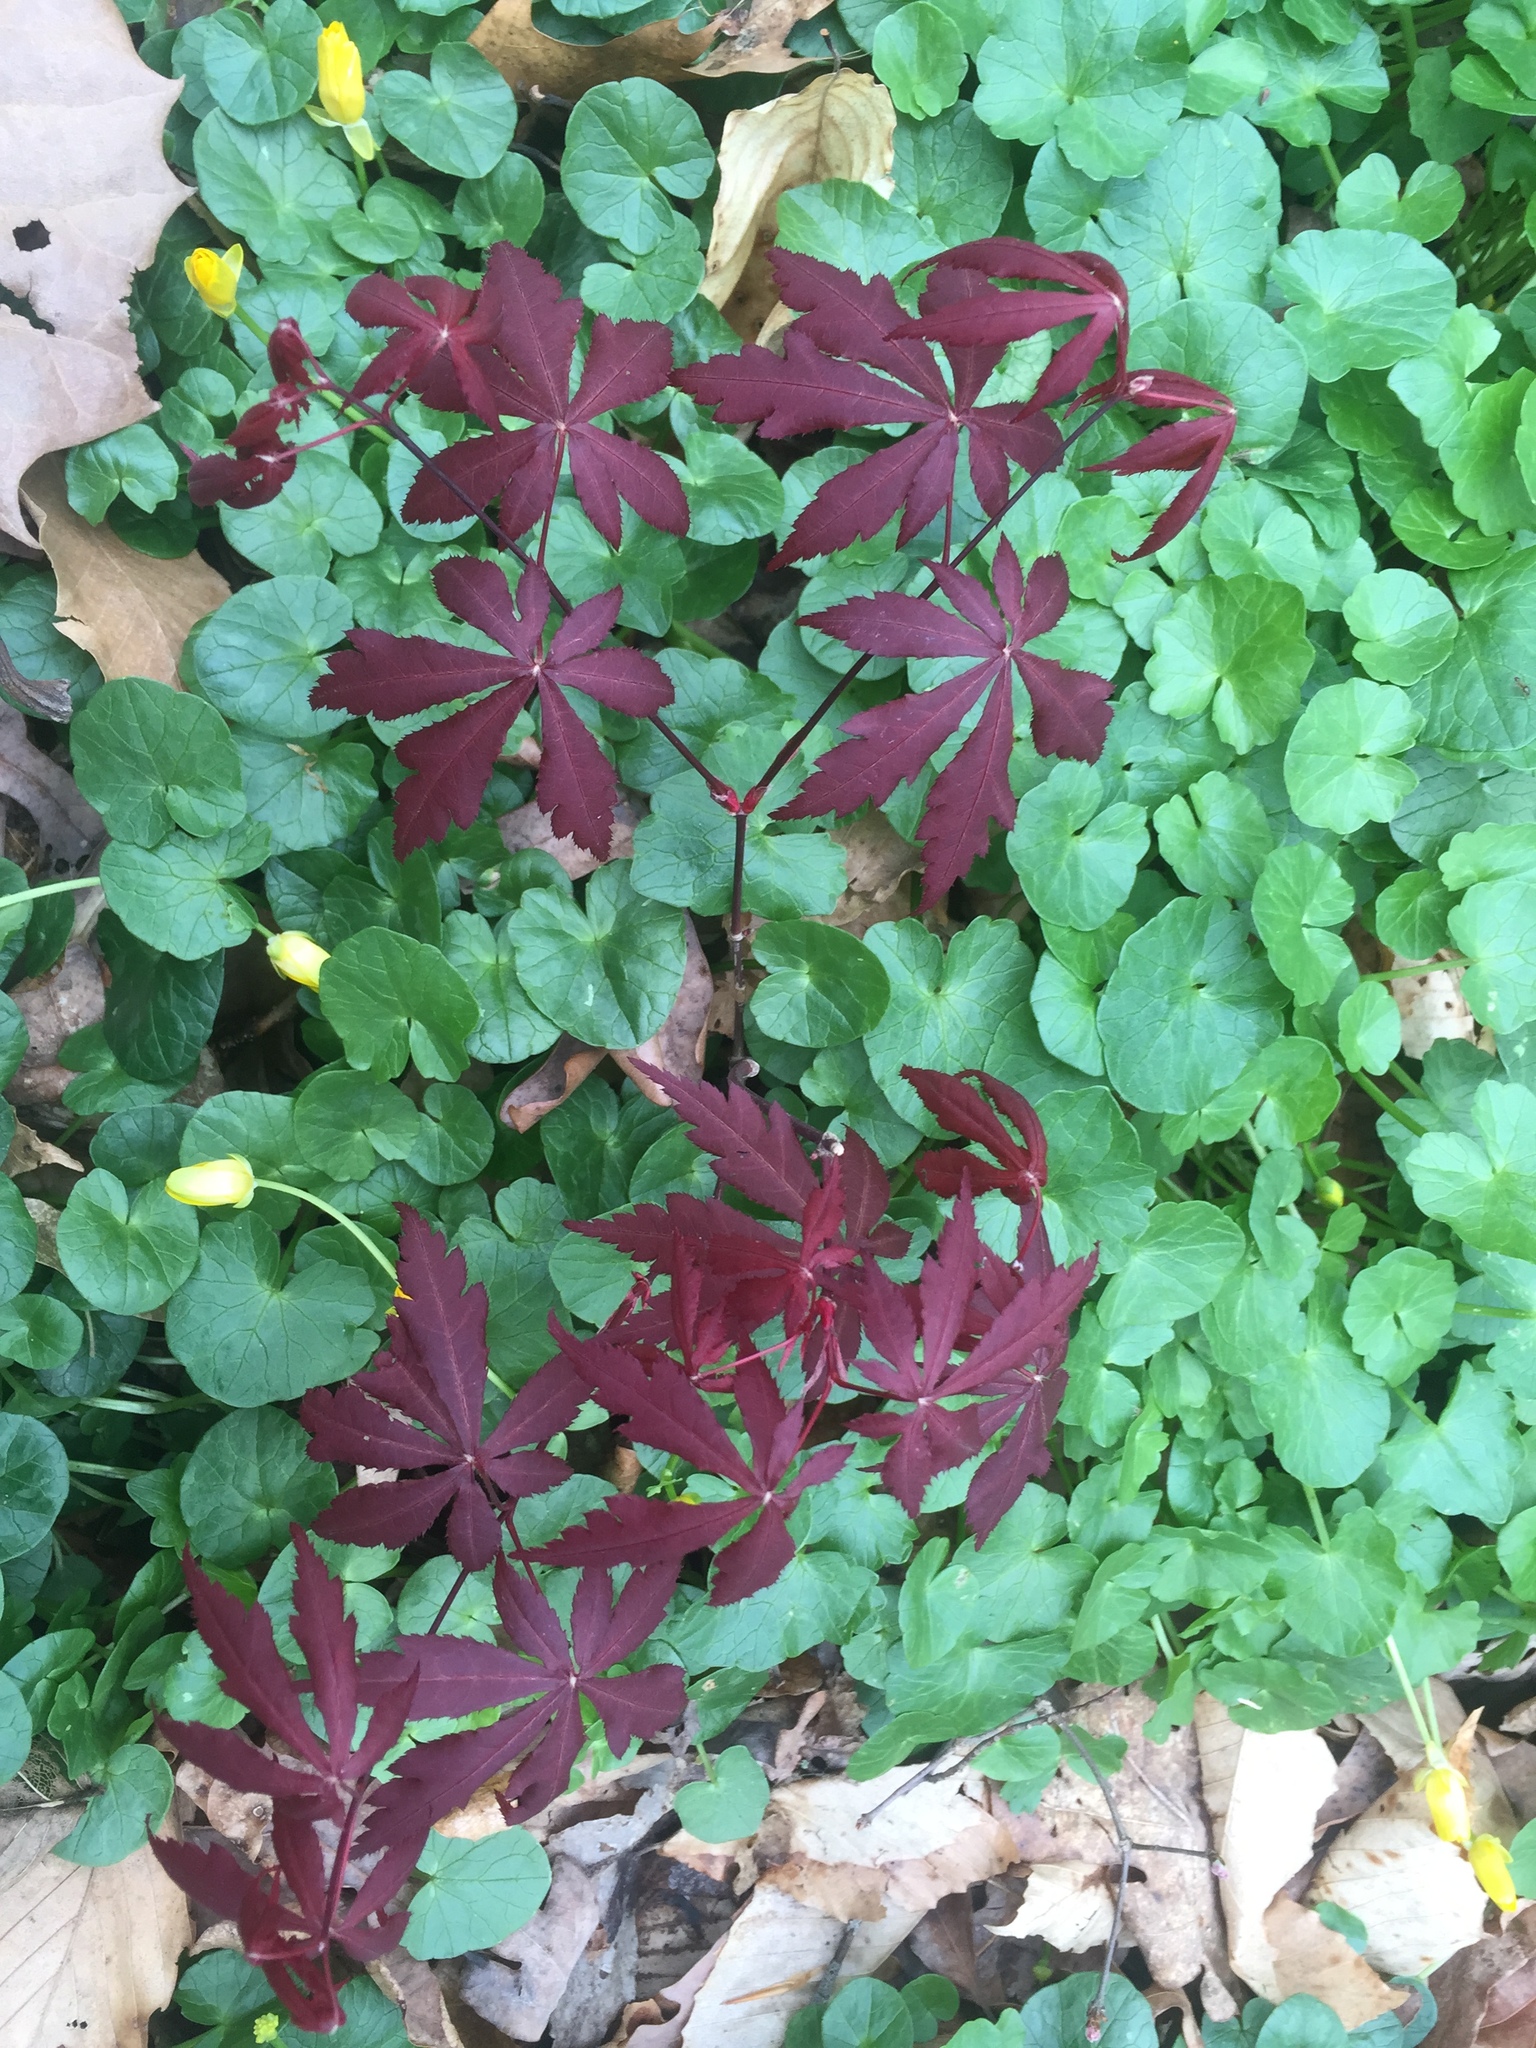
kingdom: Plantae
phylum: Tracheophyta
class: Magnoliopsida
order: Sapindales
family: Sapindaceae
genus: Acer
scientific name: Acer palmatum
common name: Japanese maple
